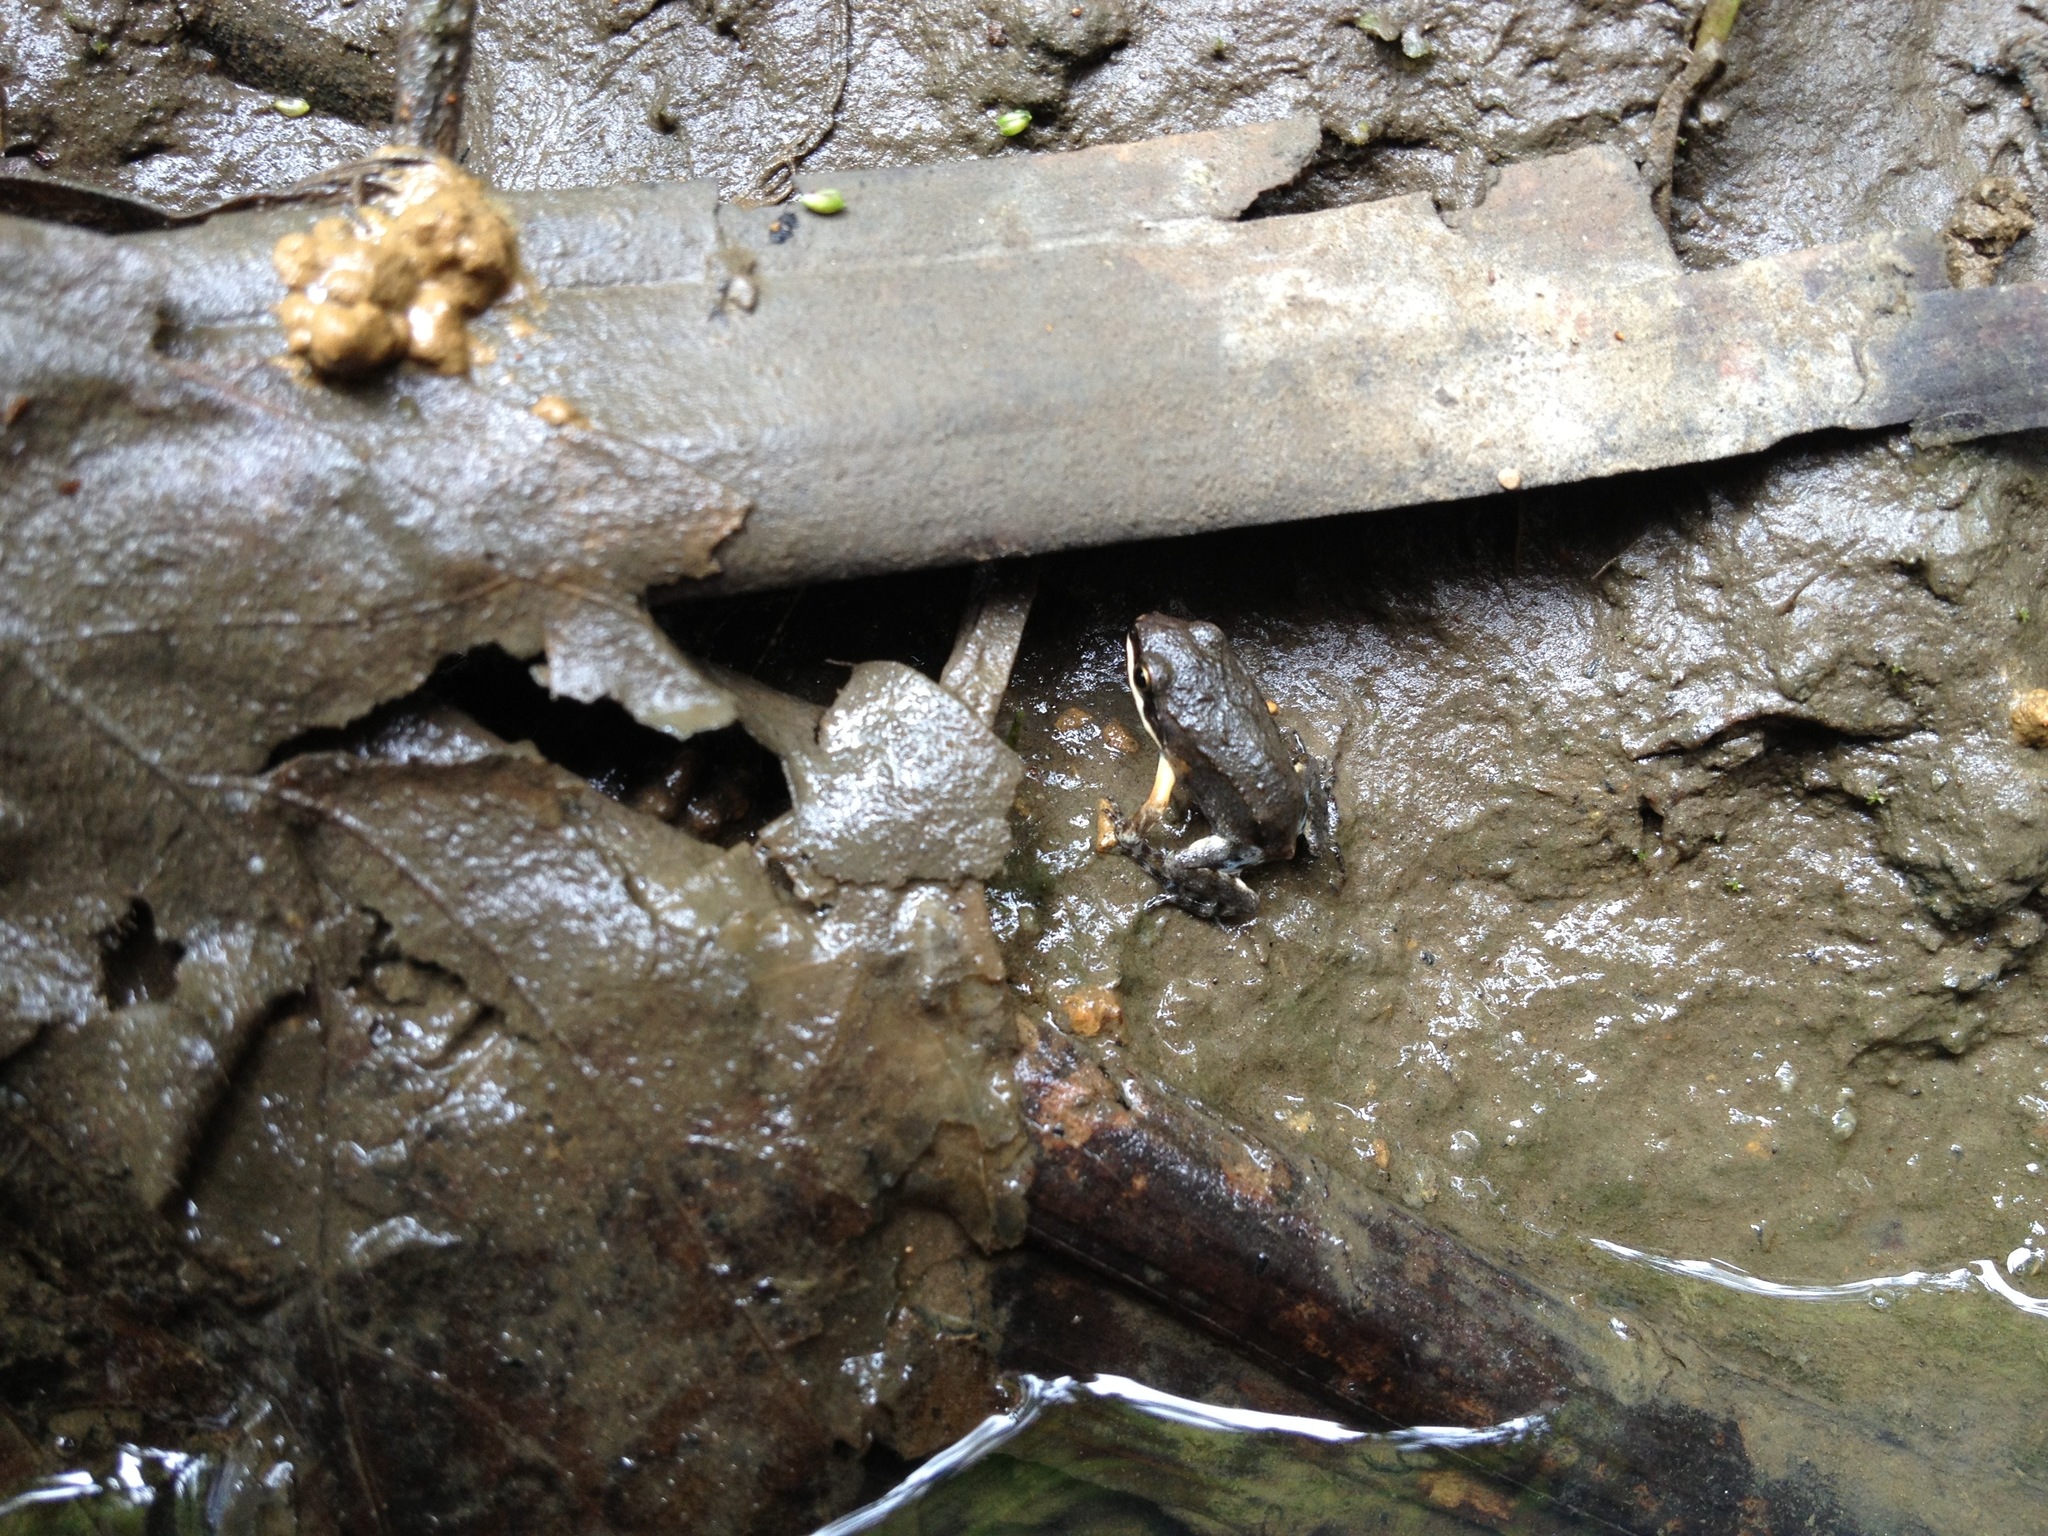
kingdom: Animalia
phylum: Chordata
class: Amphibia
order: Anura
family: Leptodactylidae
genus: Leptodactylus
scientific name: Leptodactylus albilabris
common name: Caribbean white-lipped frog
